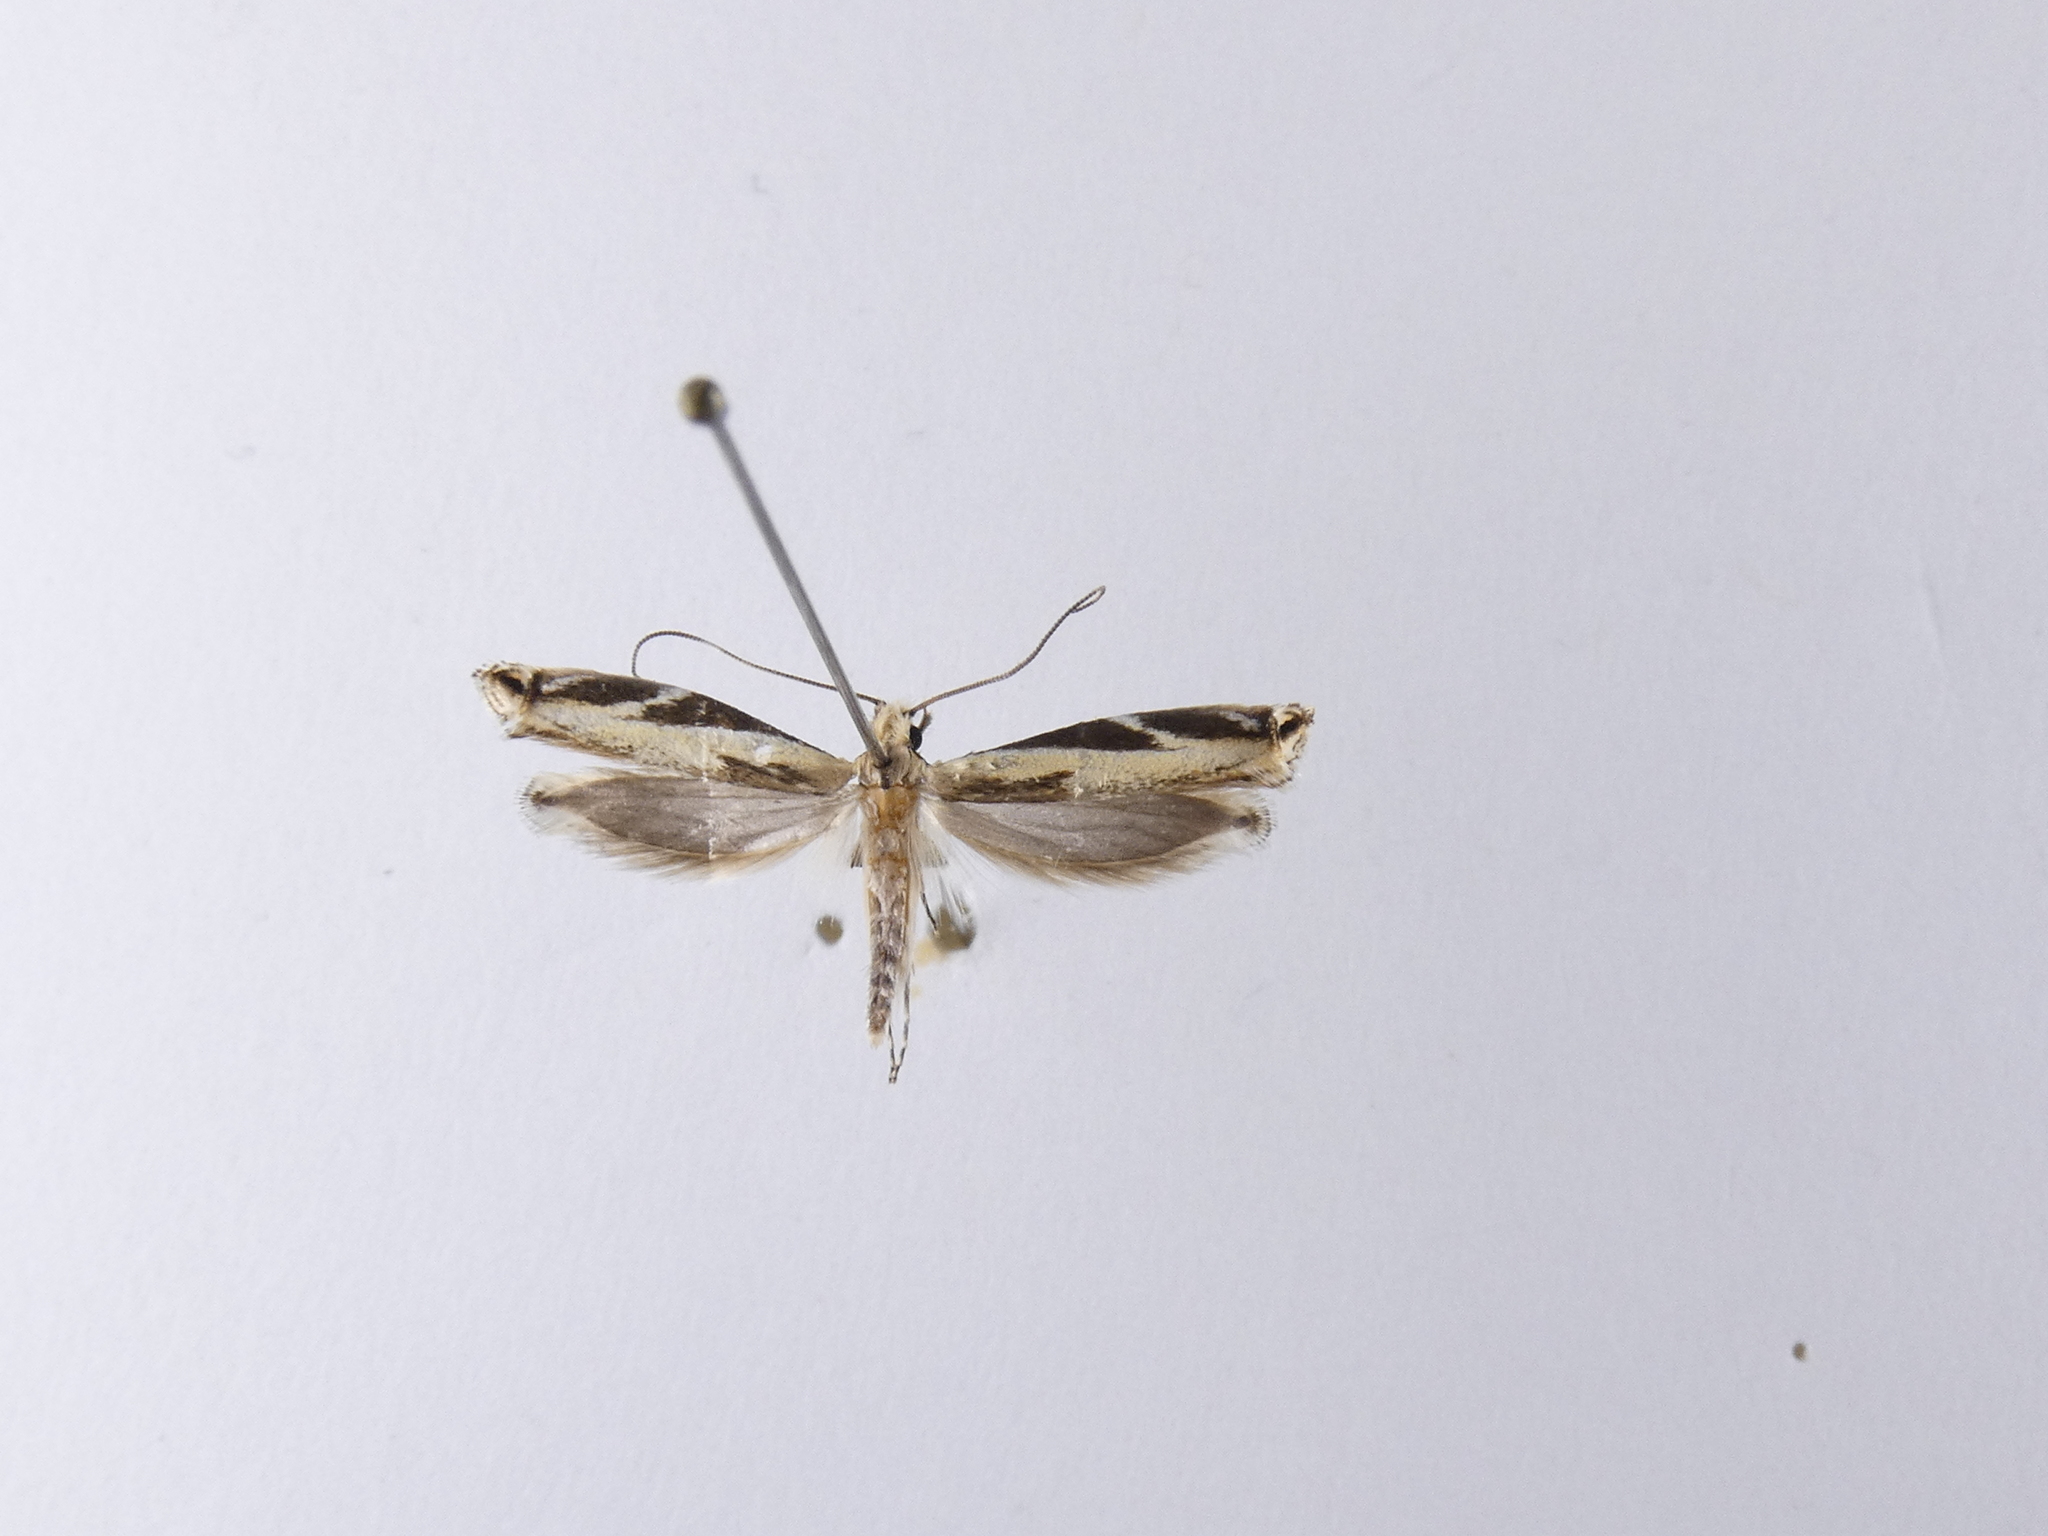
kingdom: Animalia
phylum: Arthropoda
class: Insecta
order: Lepidoptera
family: Tineidae
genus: Erechthias
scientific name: Erechthias terminella
